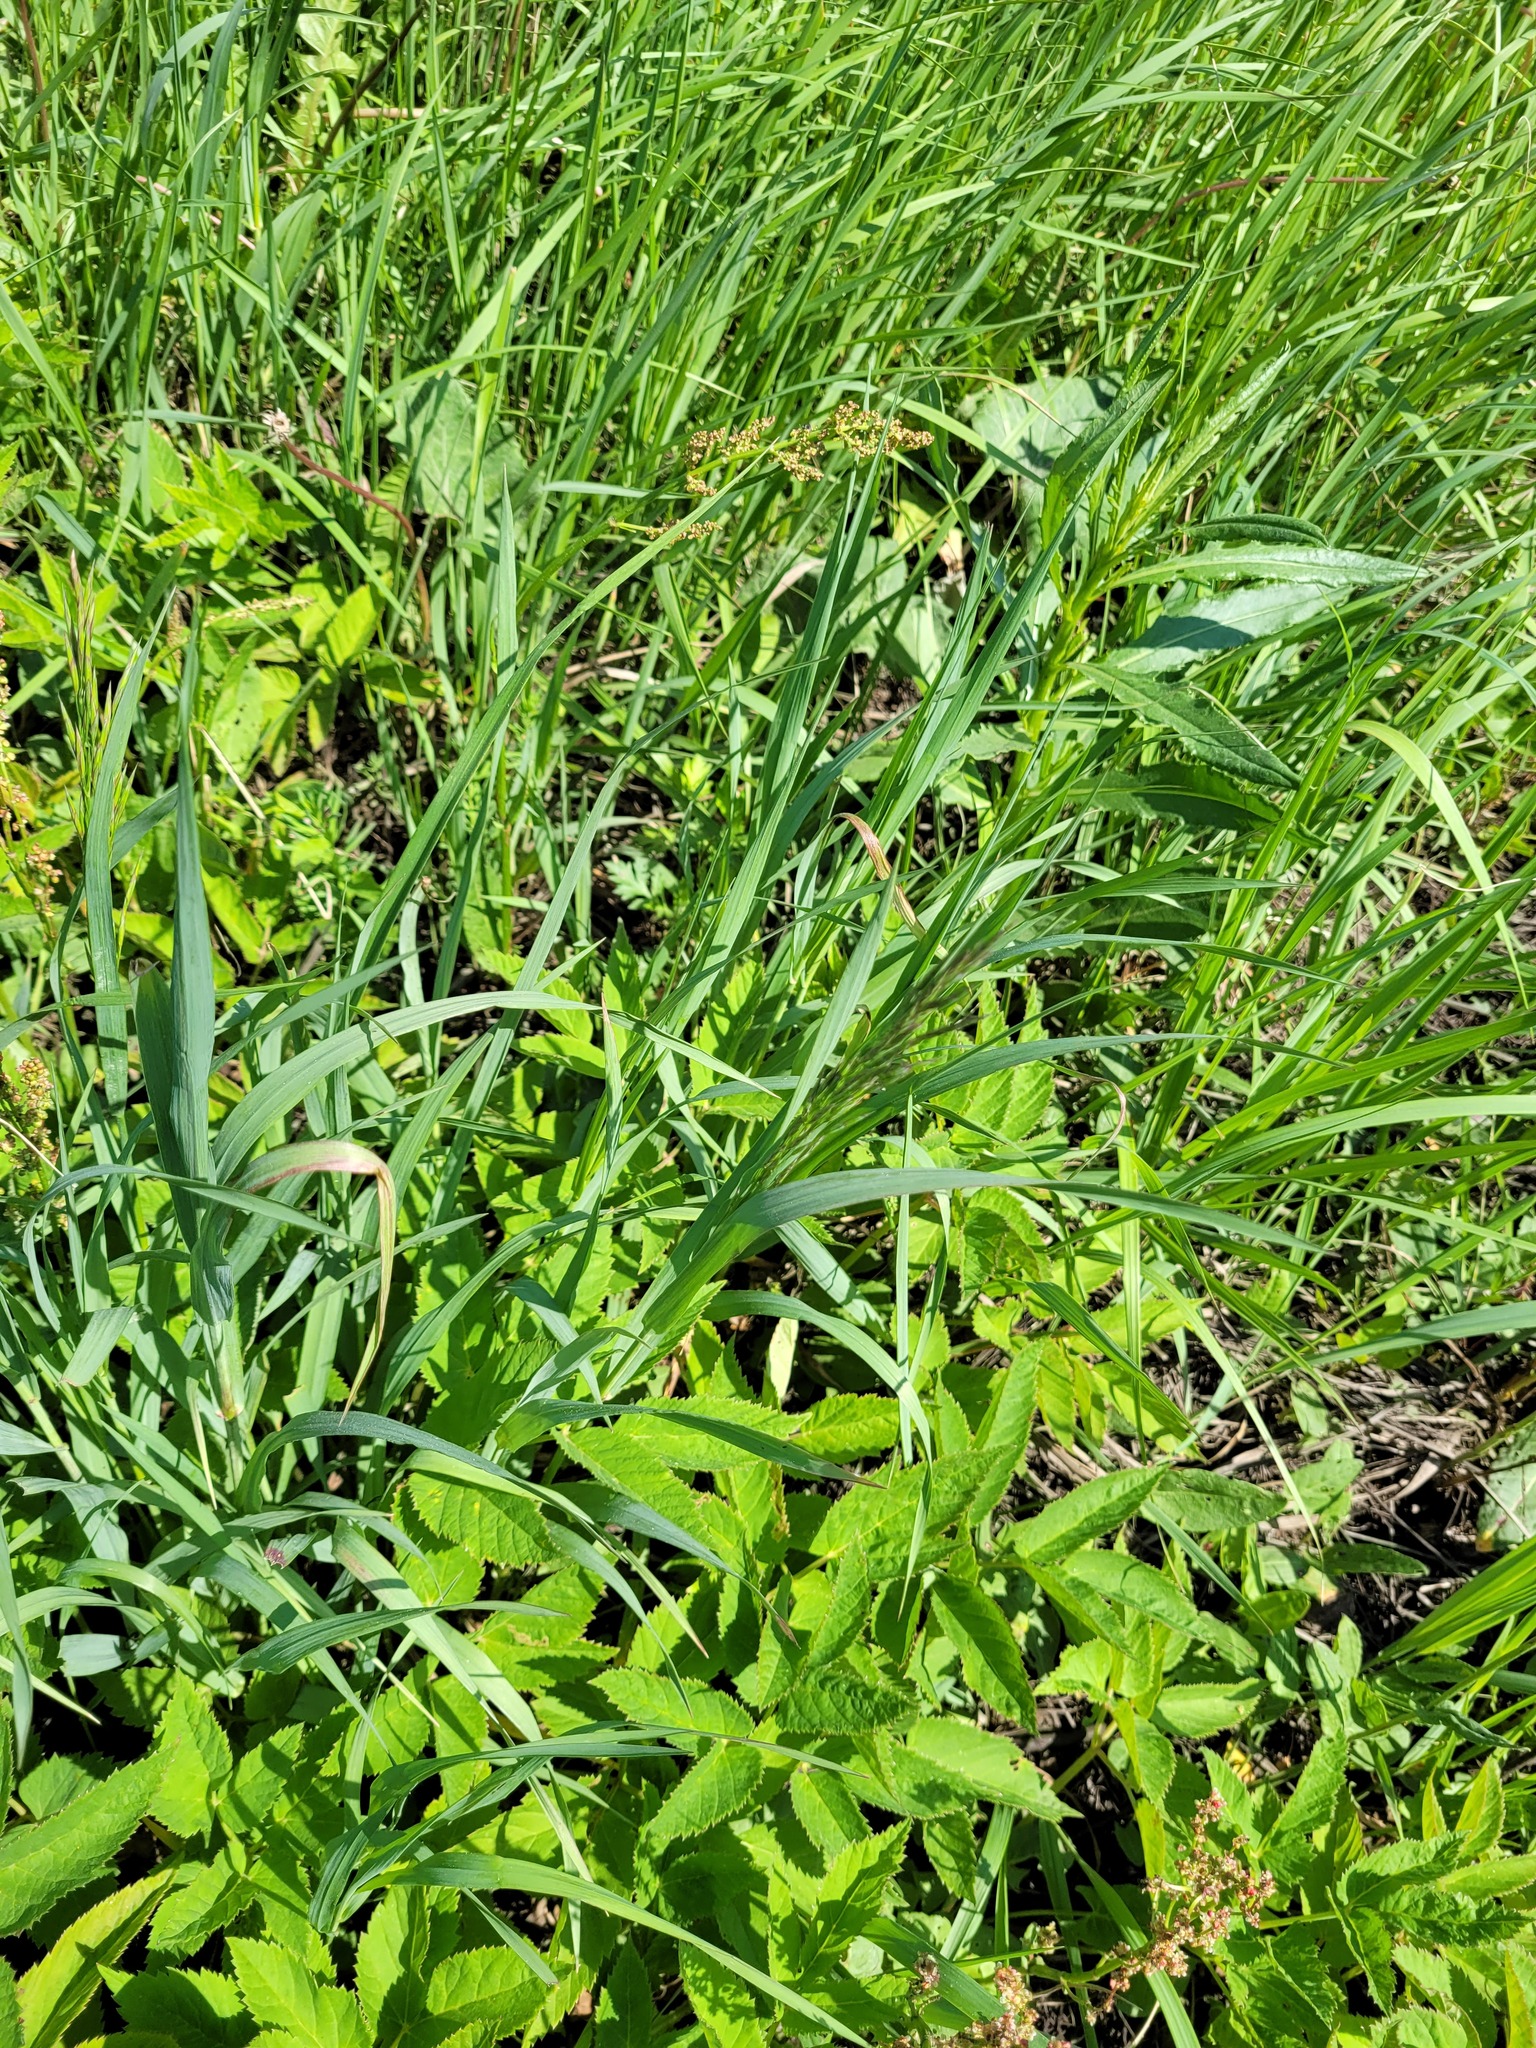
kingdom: Plantae
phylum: Tracheophyta
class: Liliopsida
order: Poales
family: Poaceae
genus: Bromus
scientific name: Bromus inermis
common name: Smooth brome
